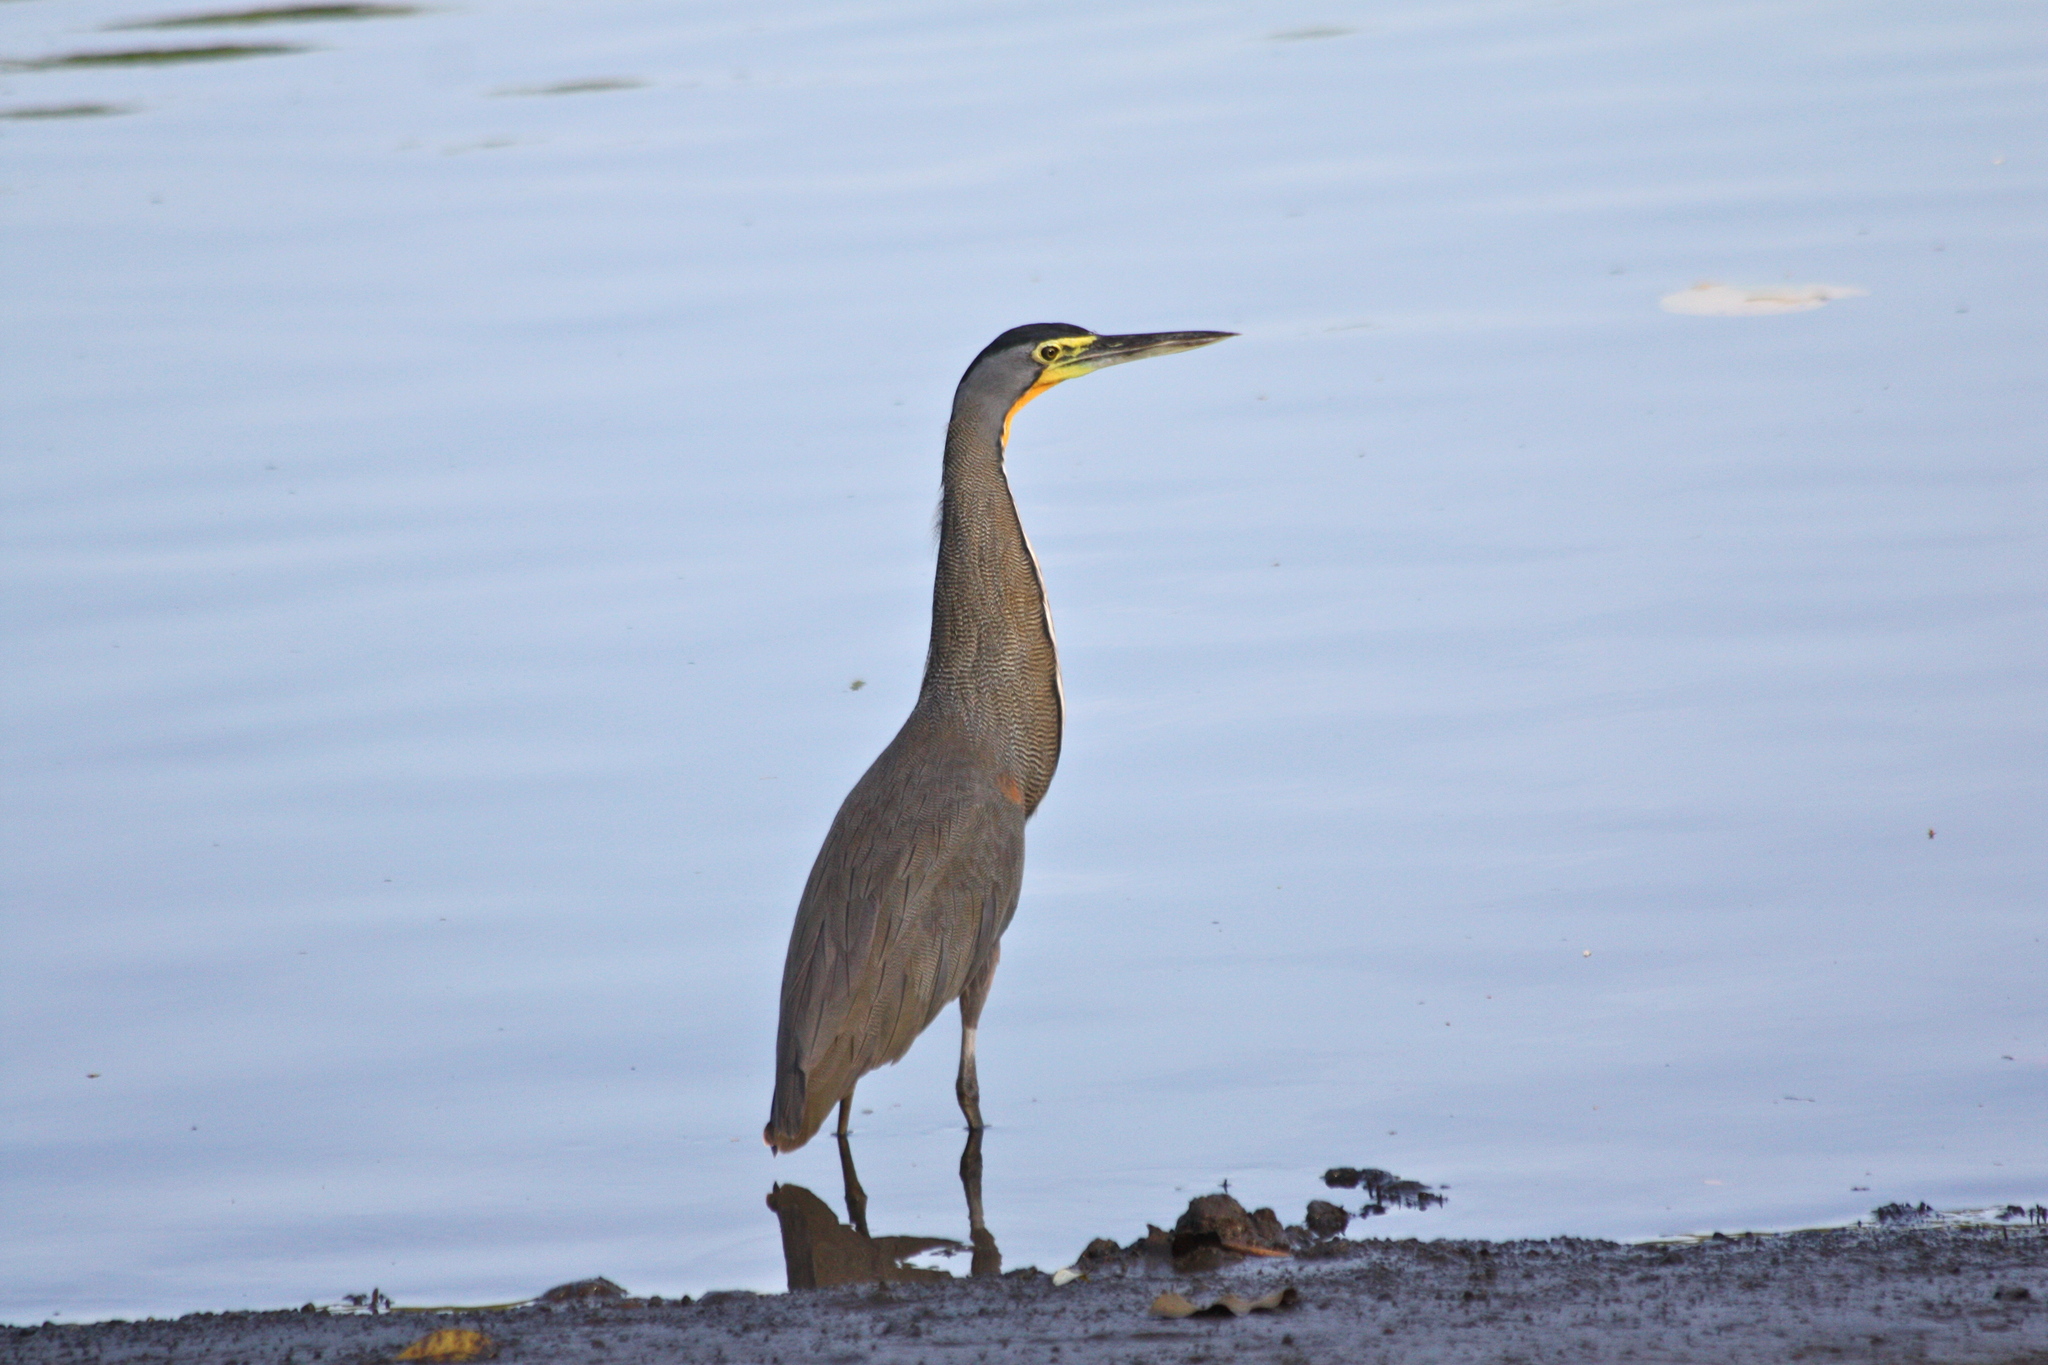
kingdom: Animalia
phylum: Chordata
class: Aves
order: Pelecaniformes
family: Ardeidae
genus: Tigrisoma
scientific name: Tigrisoma mexicanum
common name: Bare-throated tiger-heron
